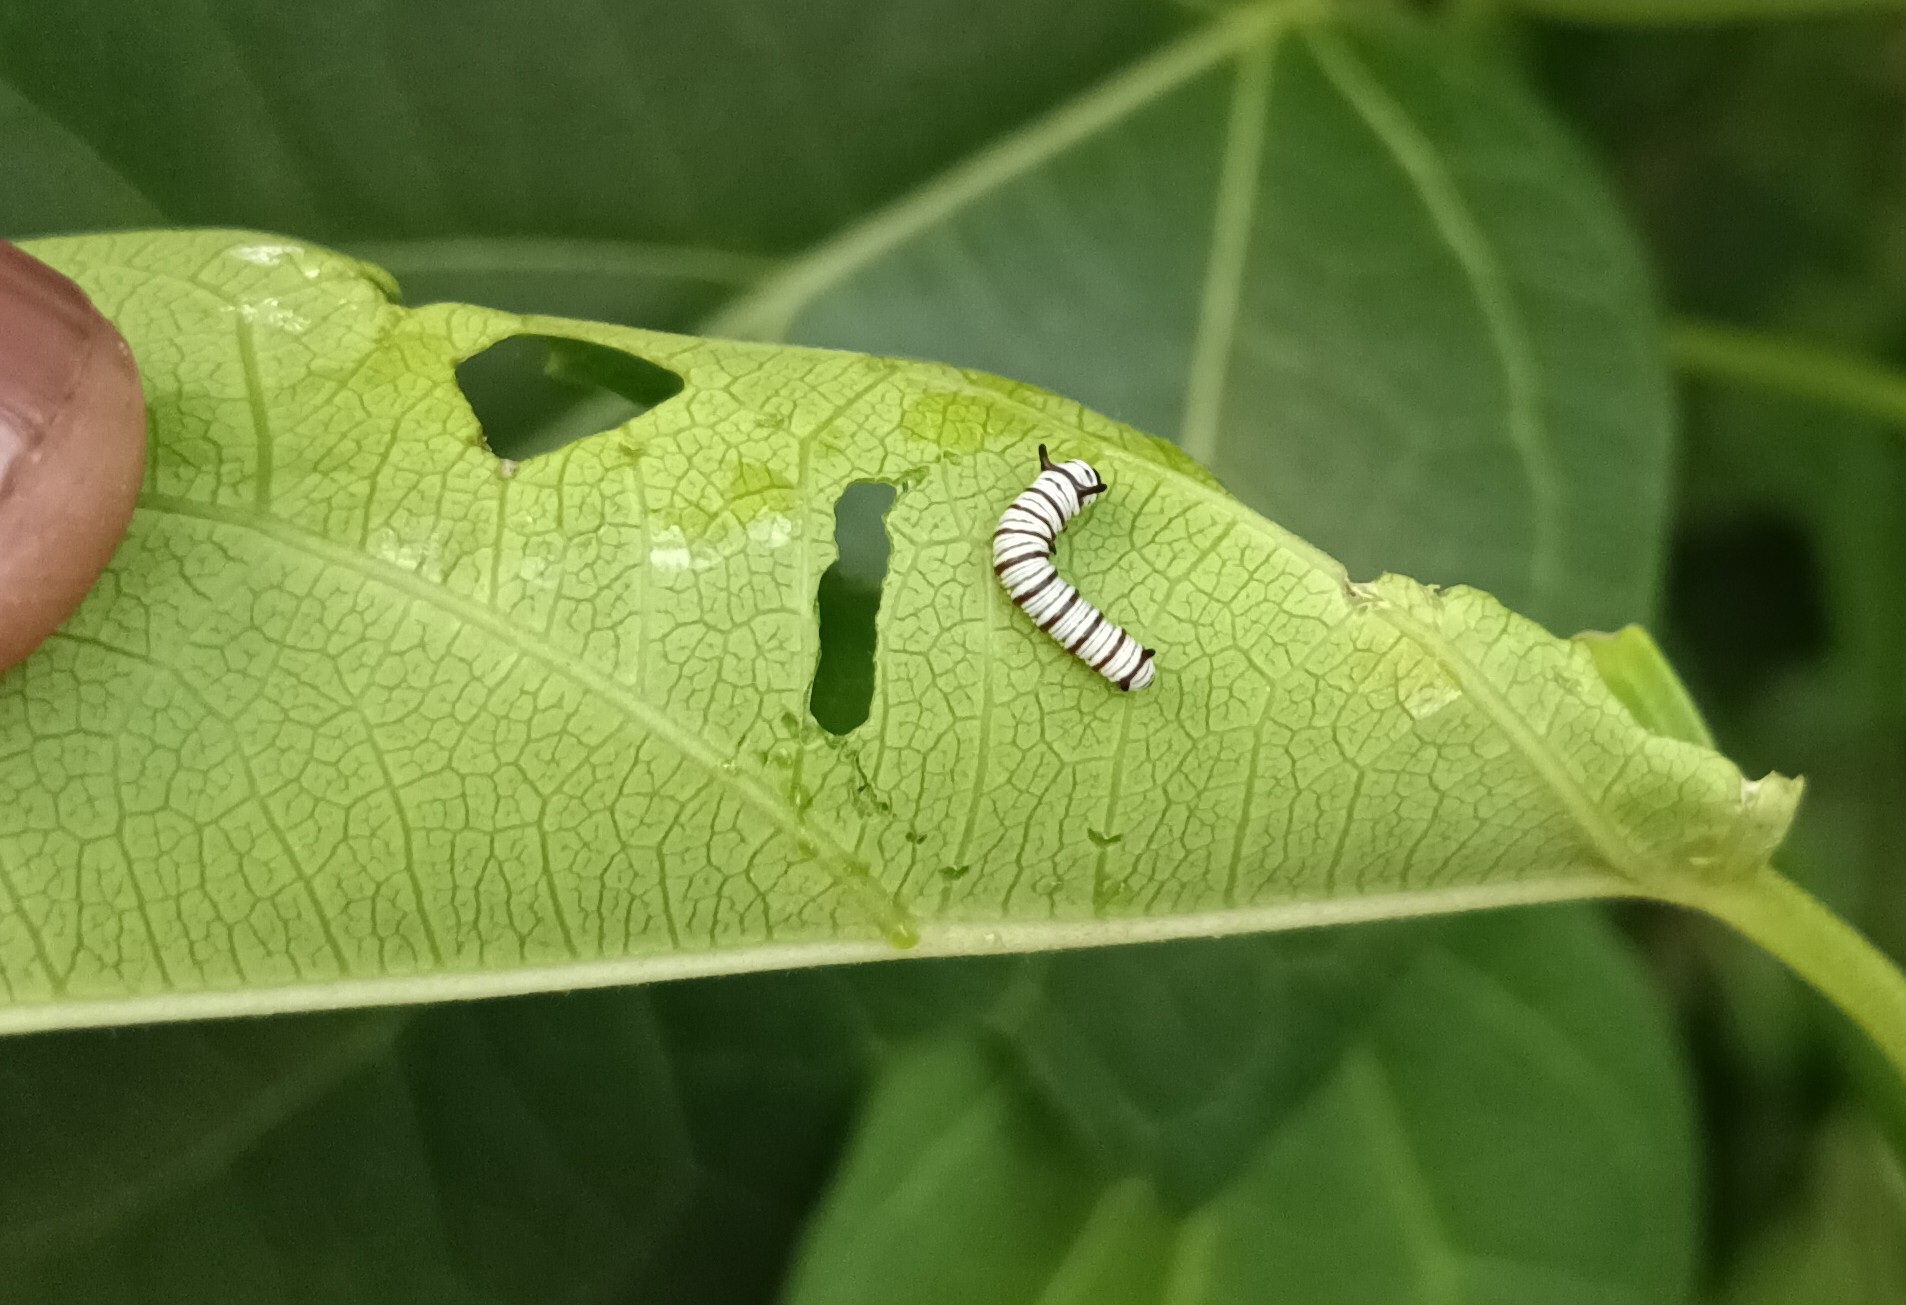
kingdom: Animalia
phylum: Arthropoda
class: Insecta
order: Lepidoptera
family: Nymphalidae
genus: Tirumala
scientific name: Tirumala limniace
